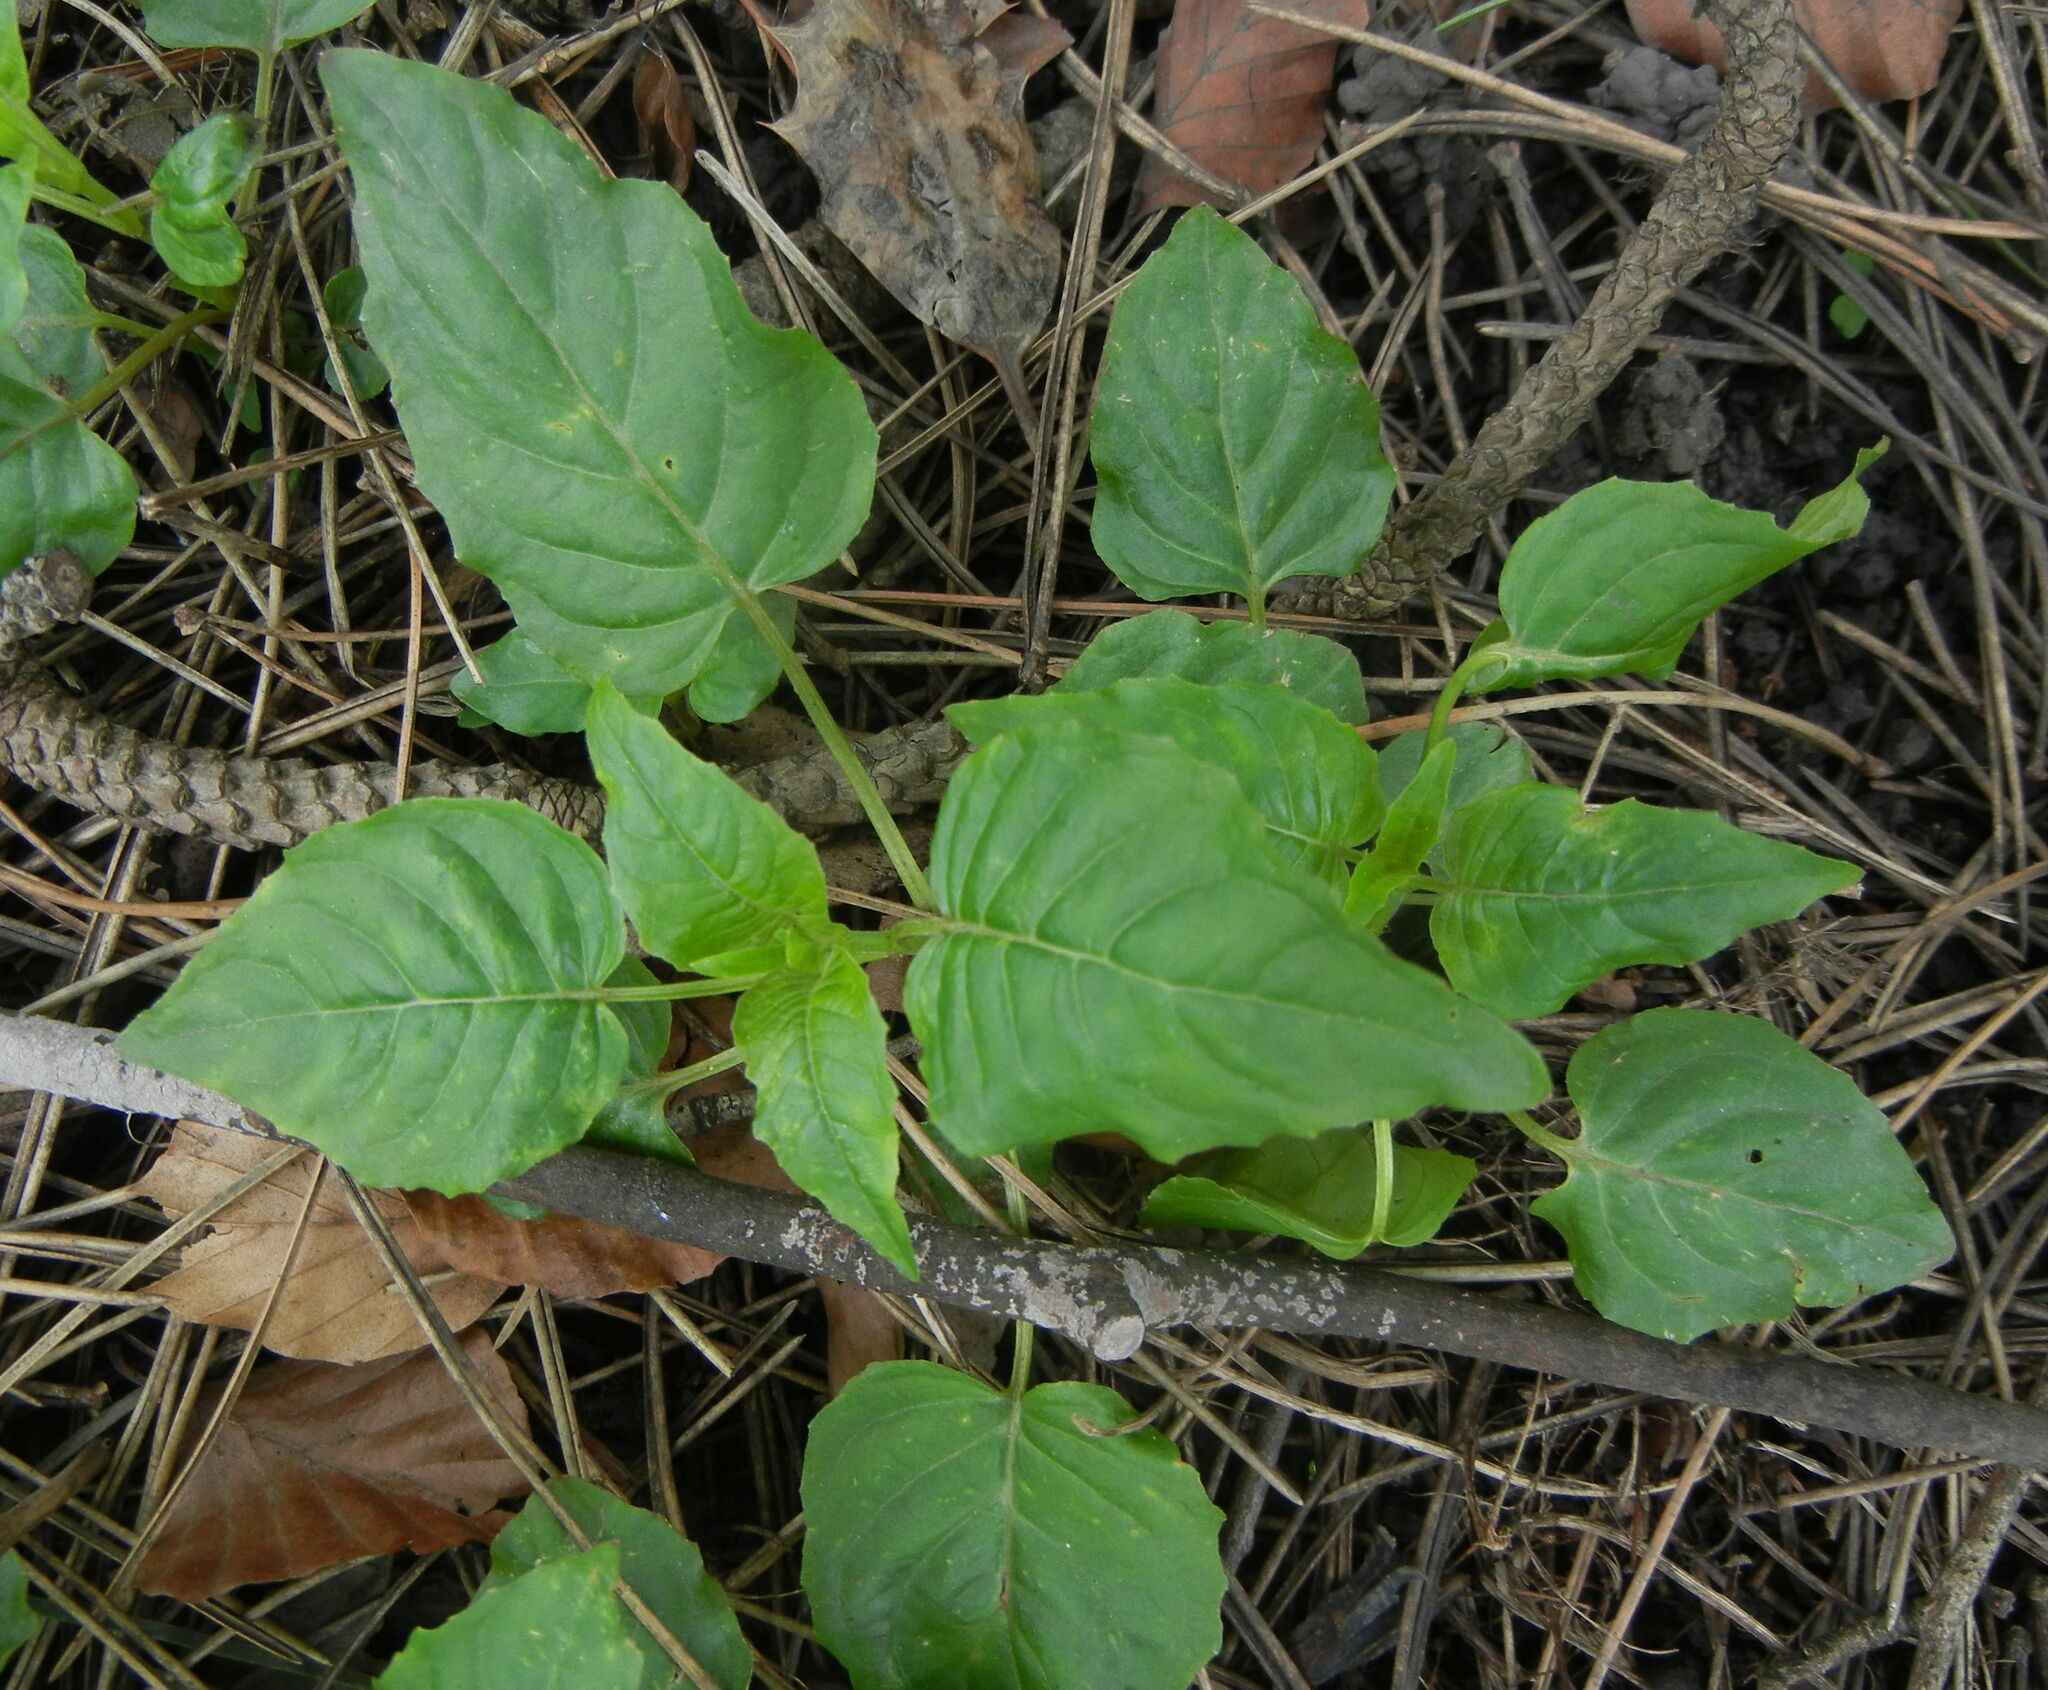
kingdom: Plantae
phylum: Tracheophyta
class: Magnoliopsida
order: Myrtales
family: Onagraceae
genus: Circaea
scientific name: Circaea lutetiana
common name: Enchanter's-nightshade
